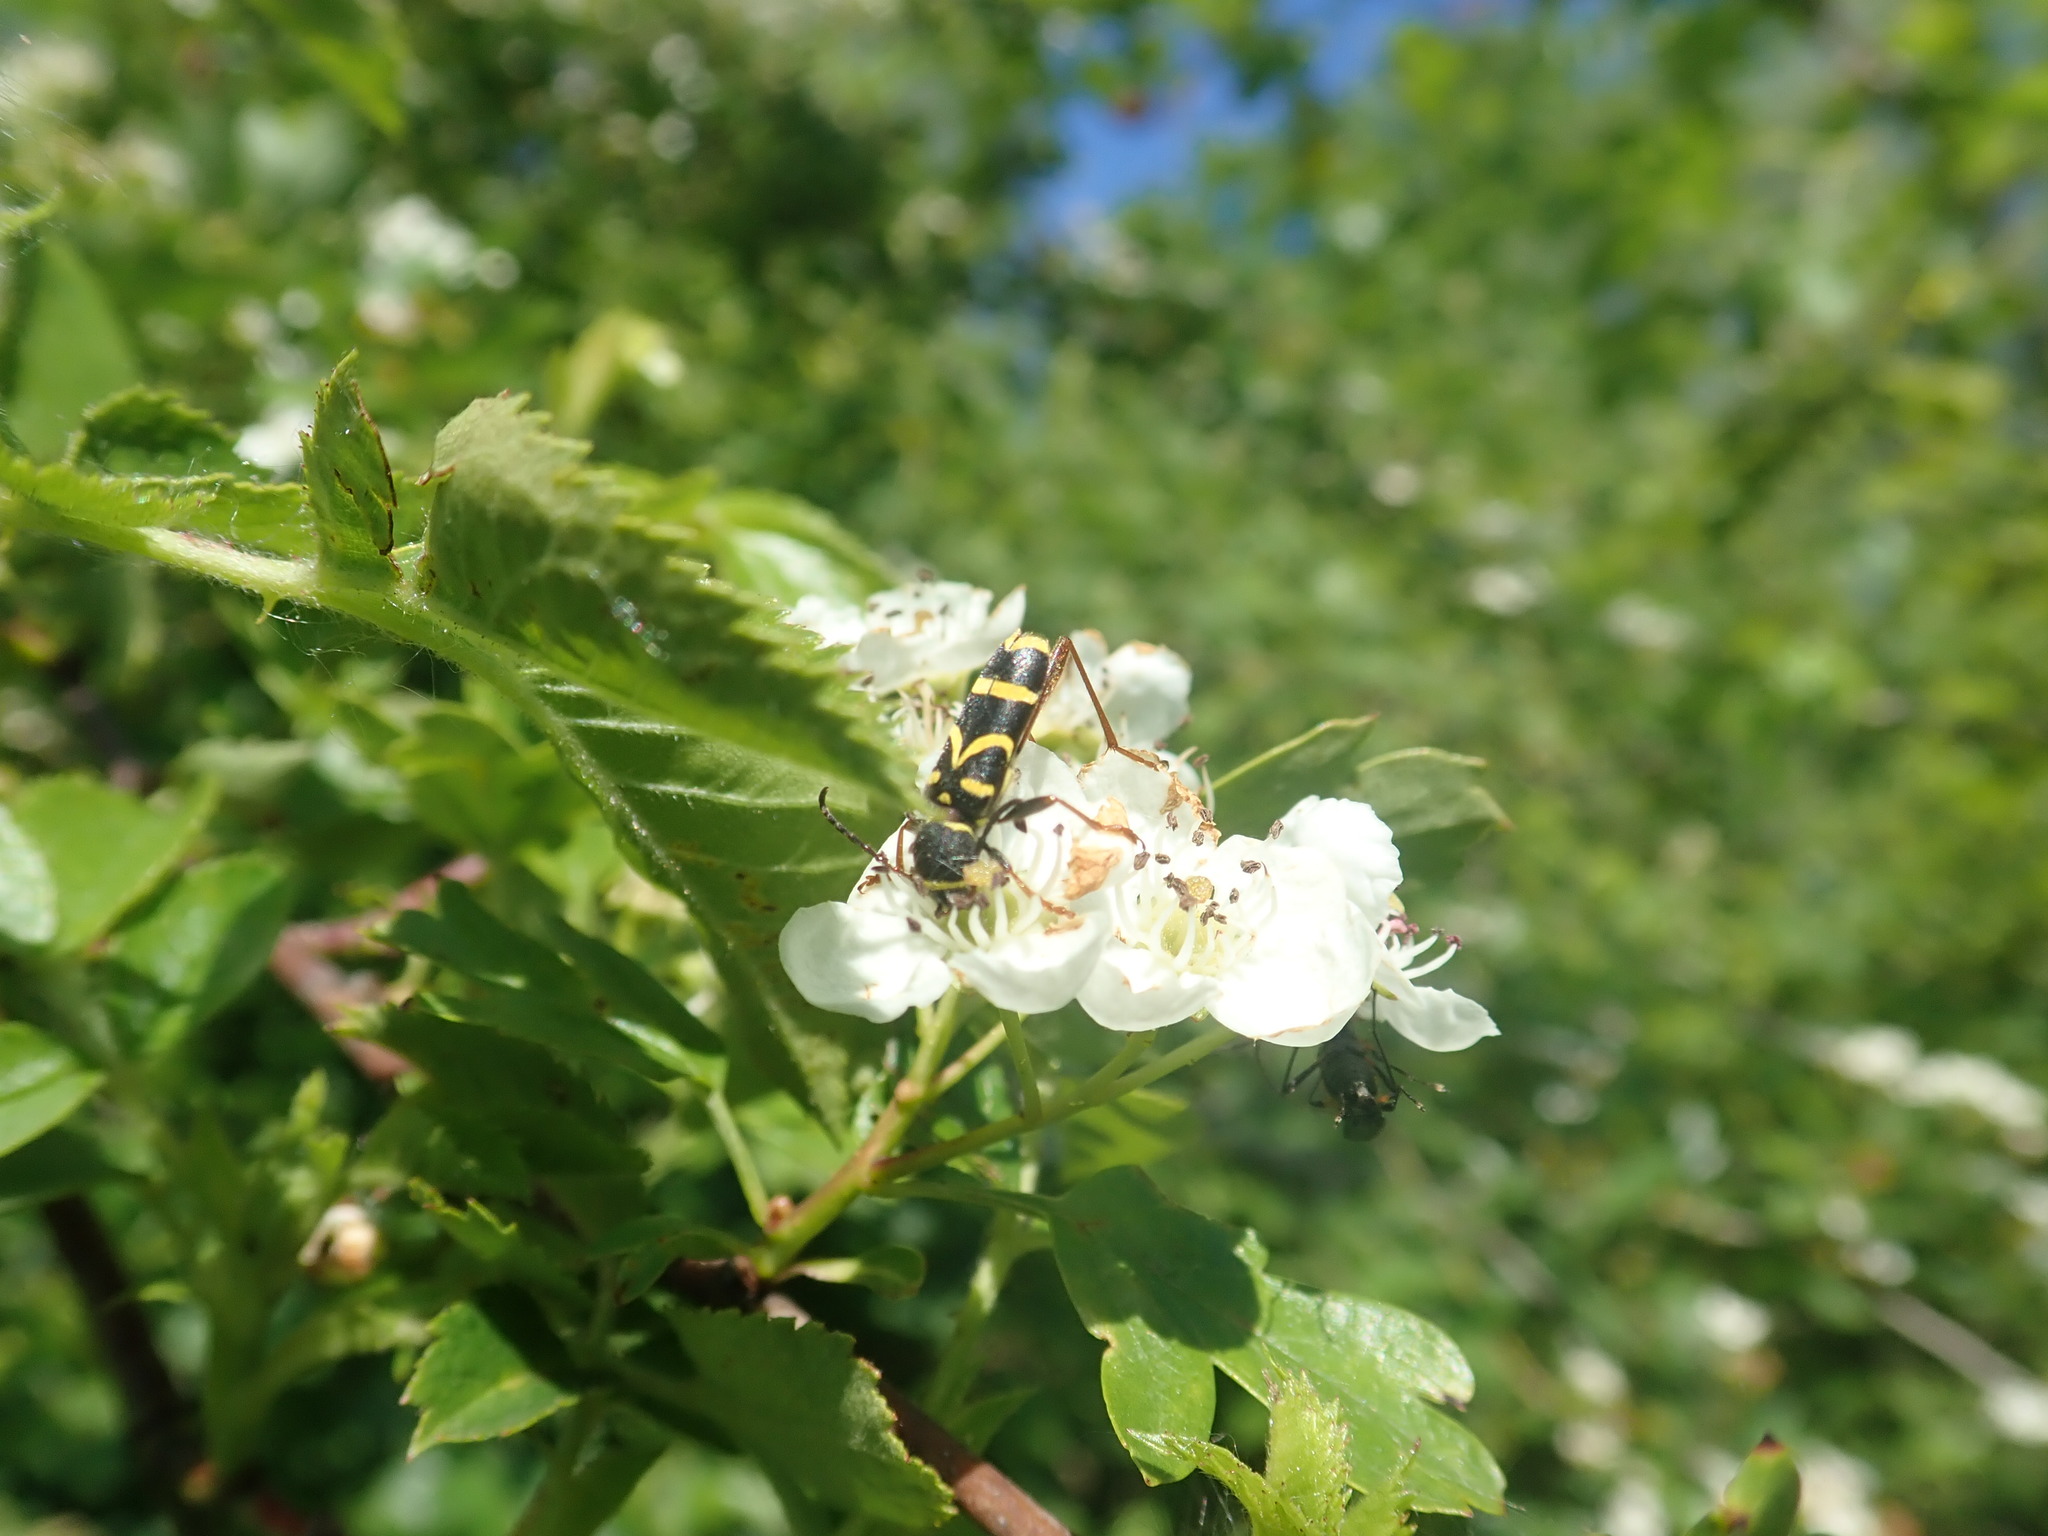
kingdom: Animalia
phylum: Arthropoda
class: Insecta
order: Coleoptera
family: Cerambycidae
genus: Clytus
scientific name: Clytus arietis
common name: Wasp beetle
